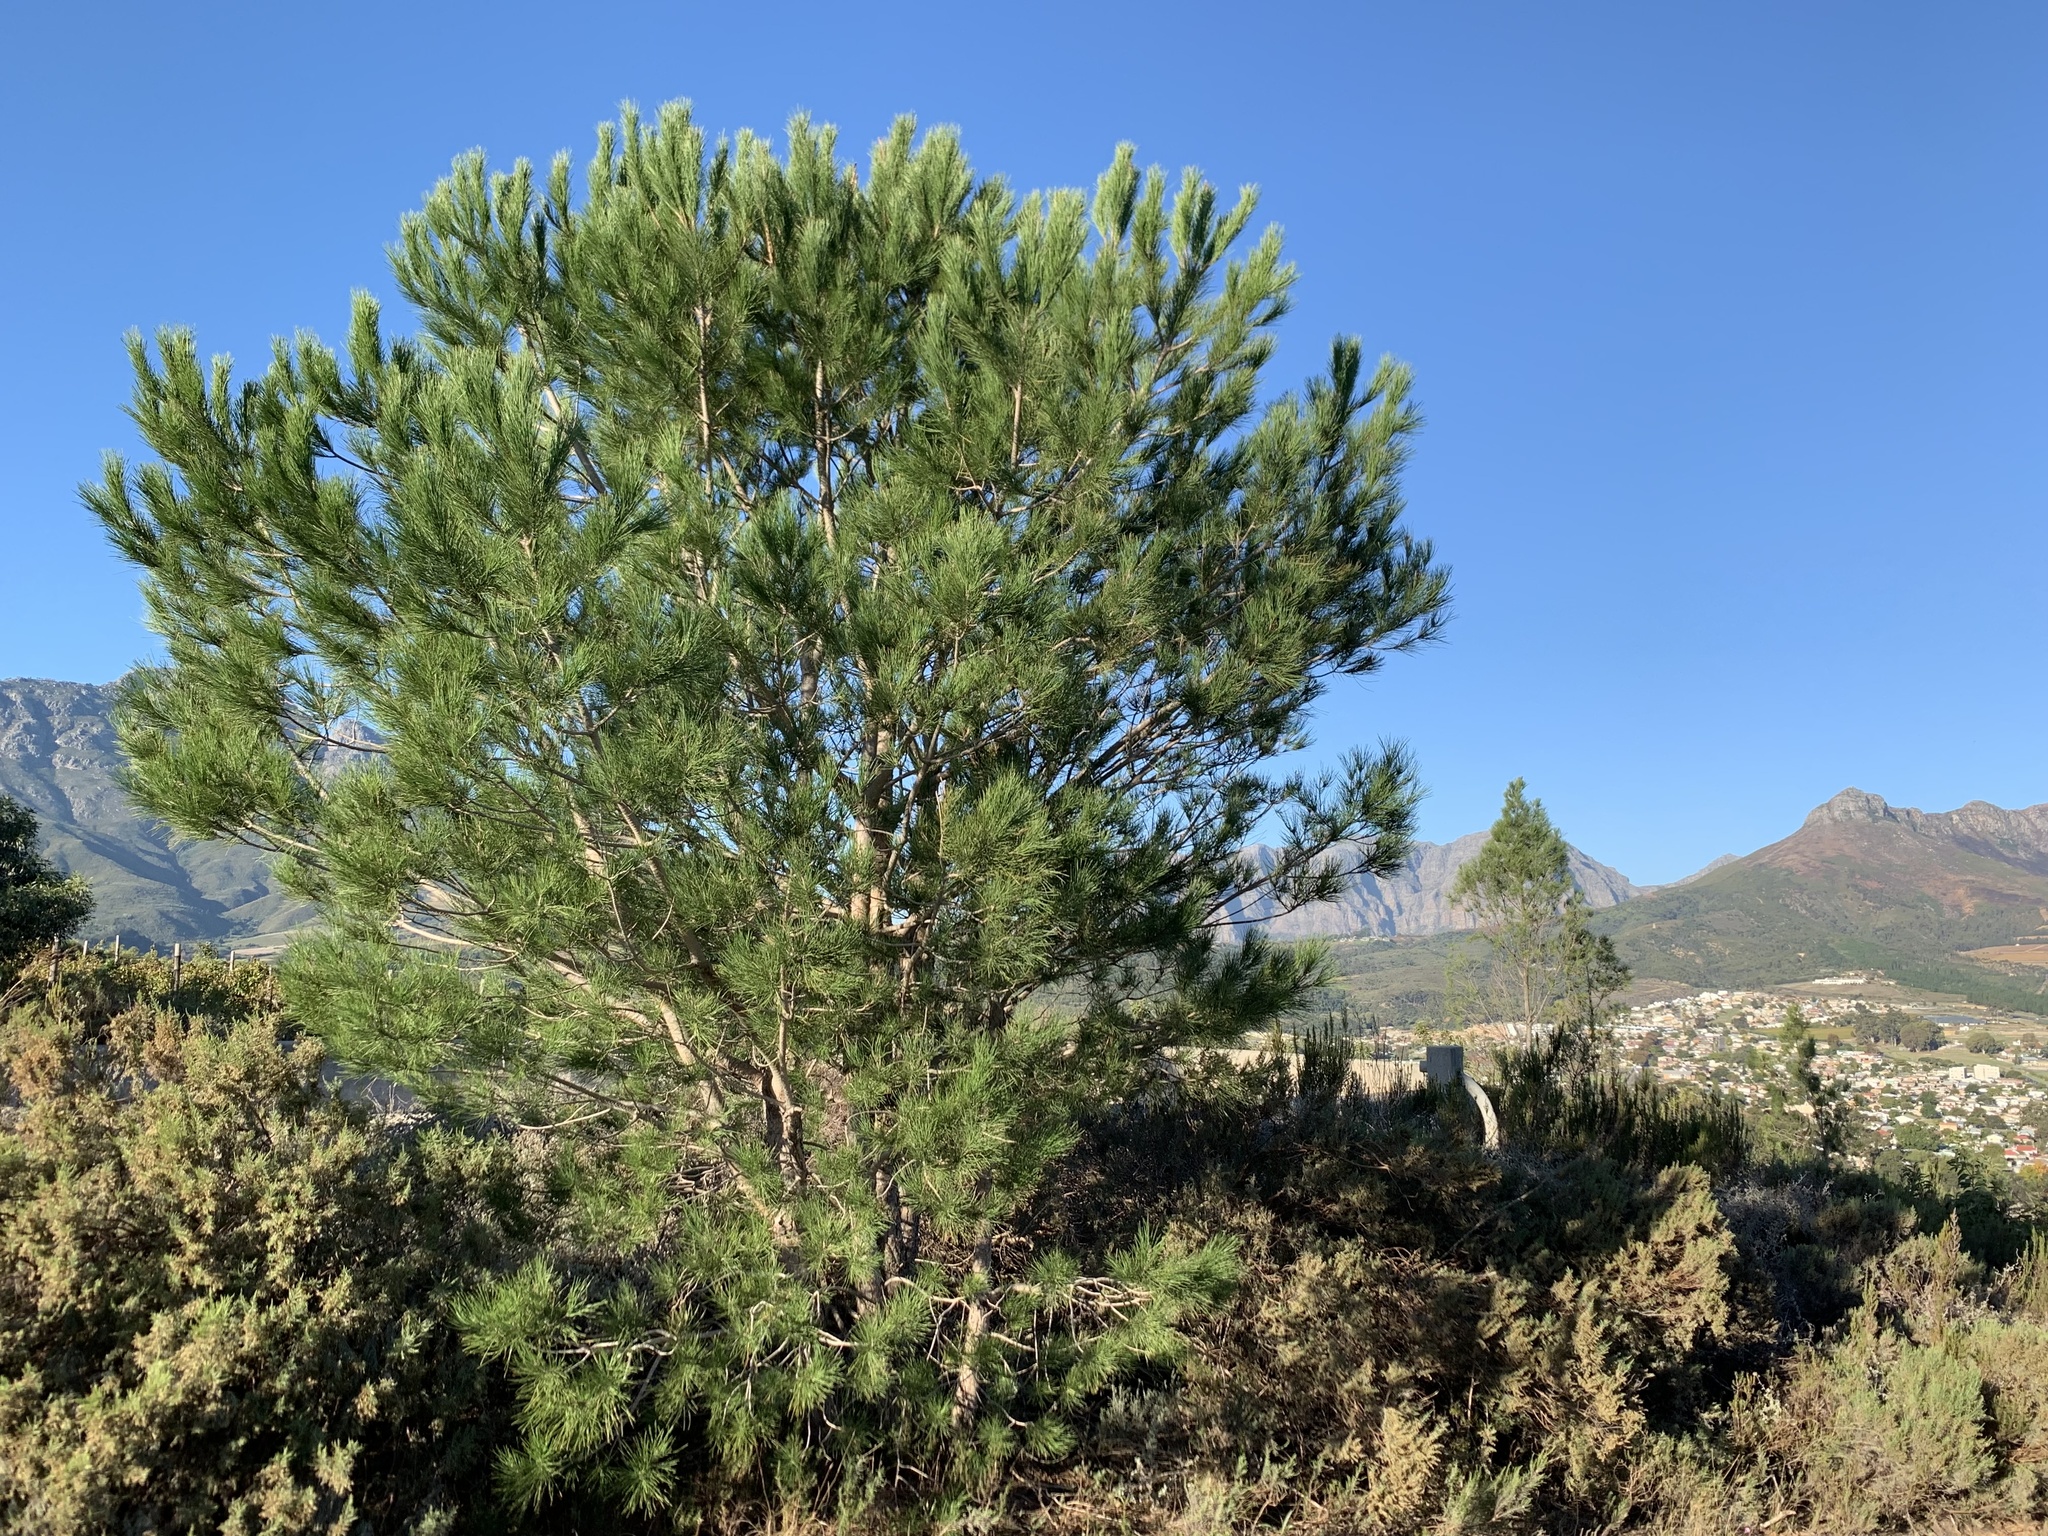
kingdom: Plantae
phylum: Tracheophyta
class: Pinopsida
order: Pinales
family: Pinaceae
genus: Pinus
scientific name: Pinus halepensis
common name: Aleppo pine
